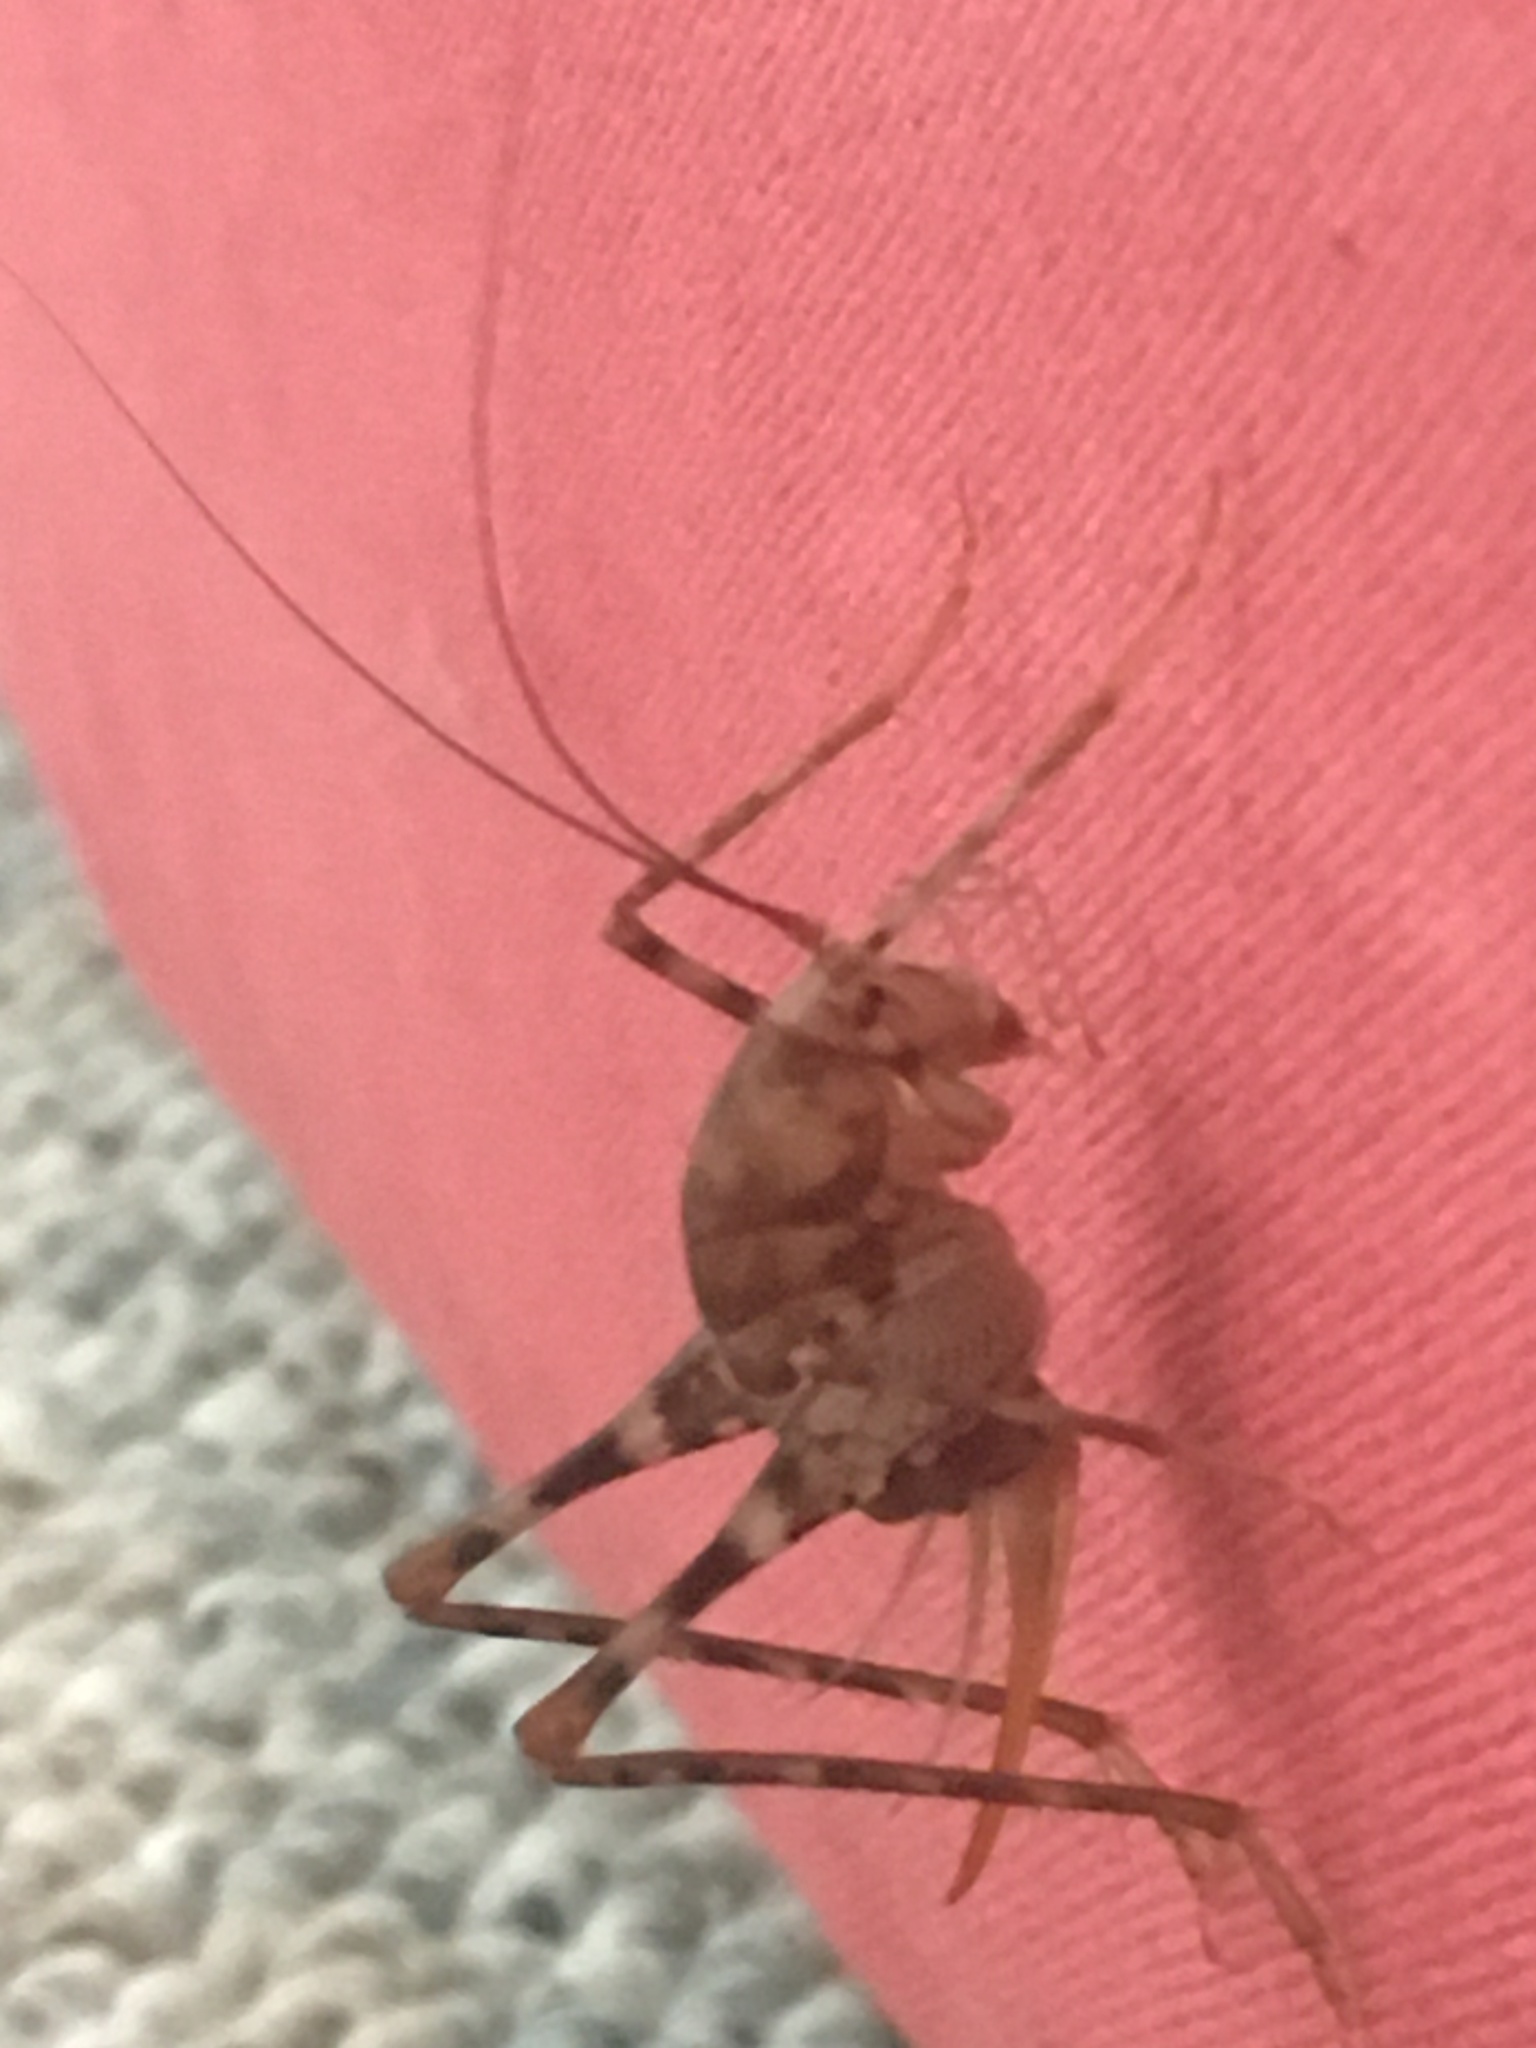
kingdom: Animalia
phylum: Arthropoda
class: Insecta
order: Orthoptera
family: Rhaphidophoridae
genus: Tachycines
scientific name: Tachycines asynamorus
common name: Greenhouse camel cricket
